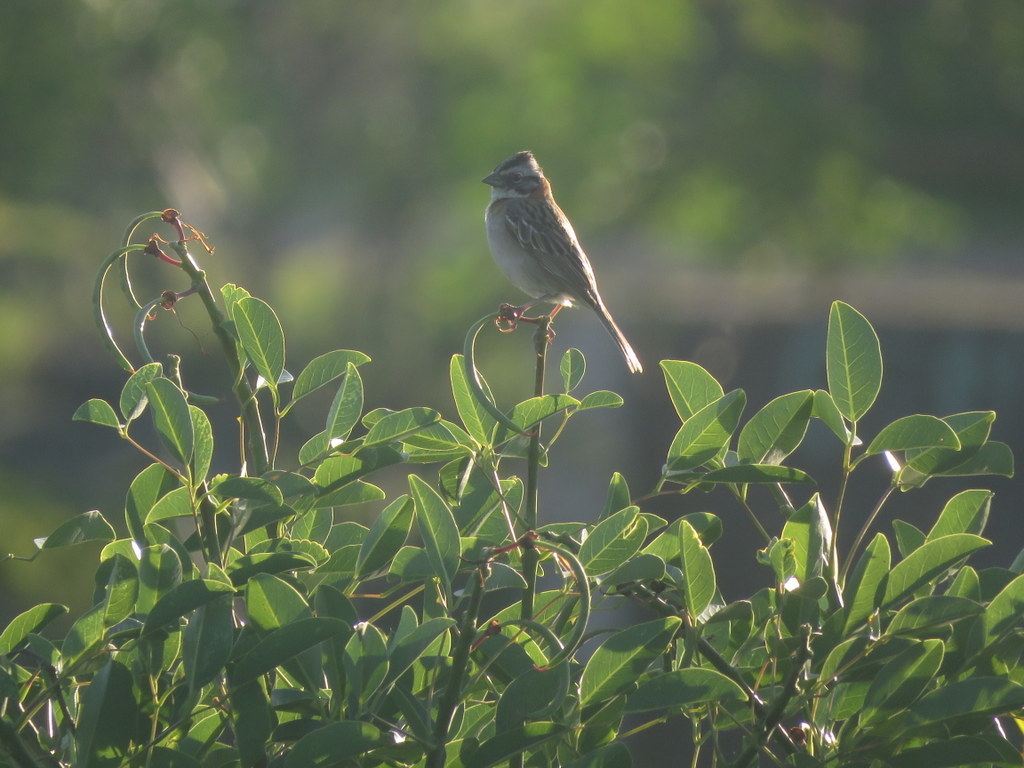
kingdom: Animalia
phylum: Chordata
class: Aves
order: Passeriformes
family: Passerellidae
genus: Zonotrichia
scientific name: Zonotrichia capensis
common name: Rufous-collared sparrow
